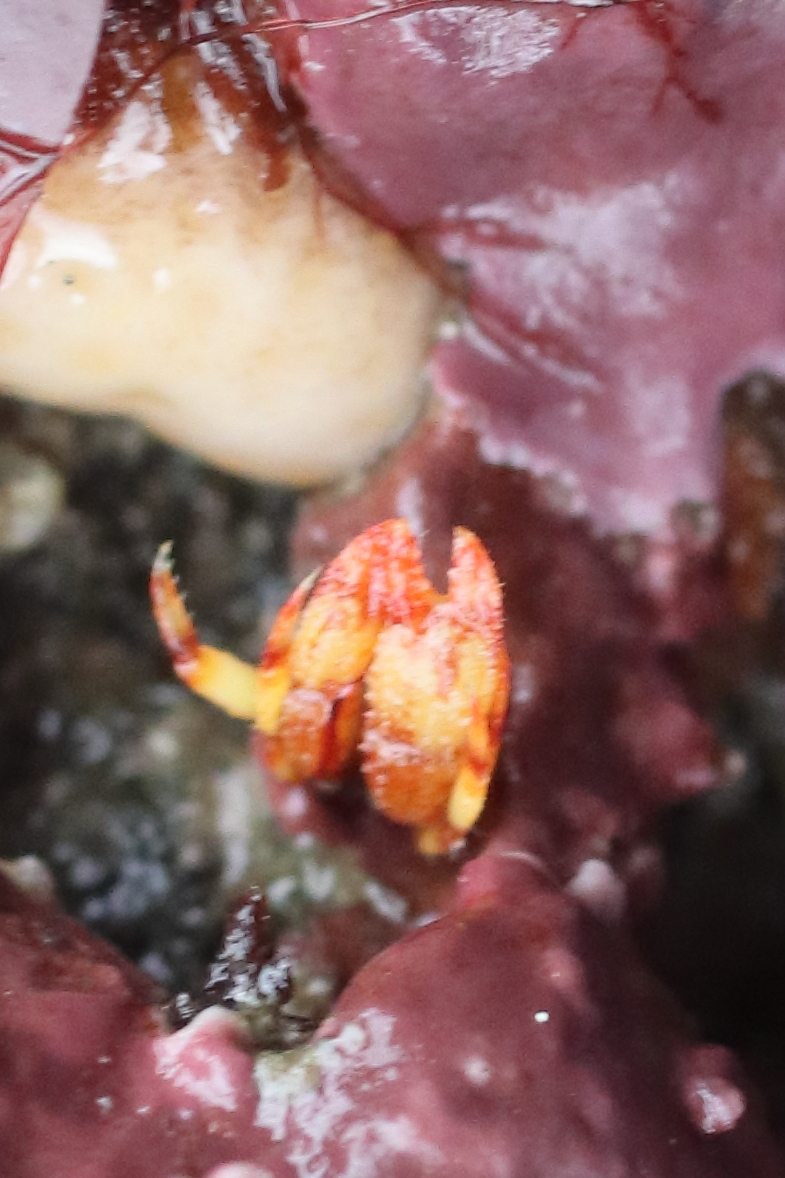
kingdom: Animalia
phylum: Arthropoda
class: Malacostraca
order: Decapoda
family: Paguridae
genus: Discorsopagurus
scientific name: Discorsopagurus schmitti
